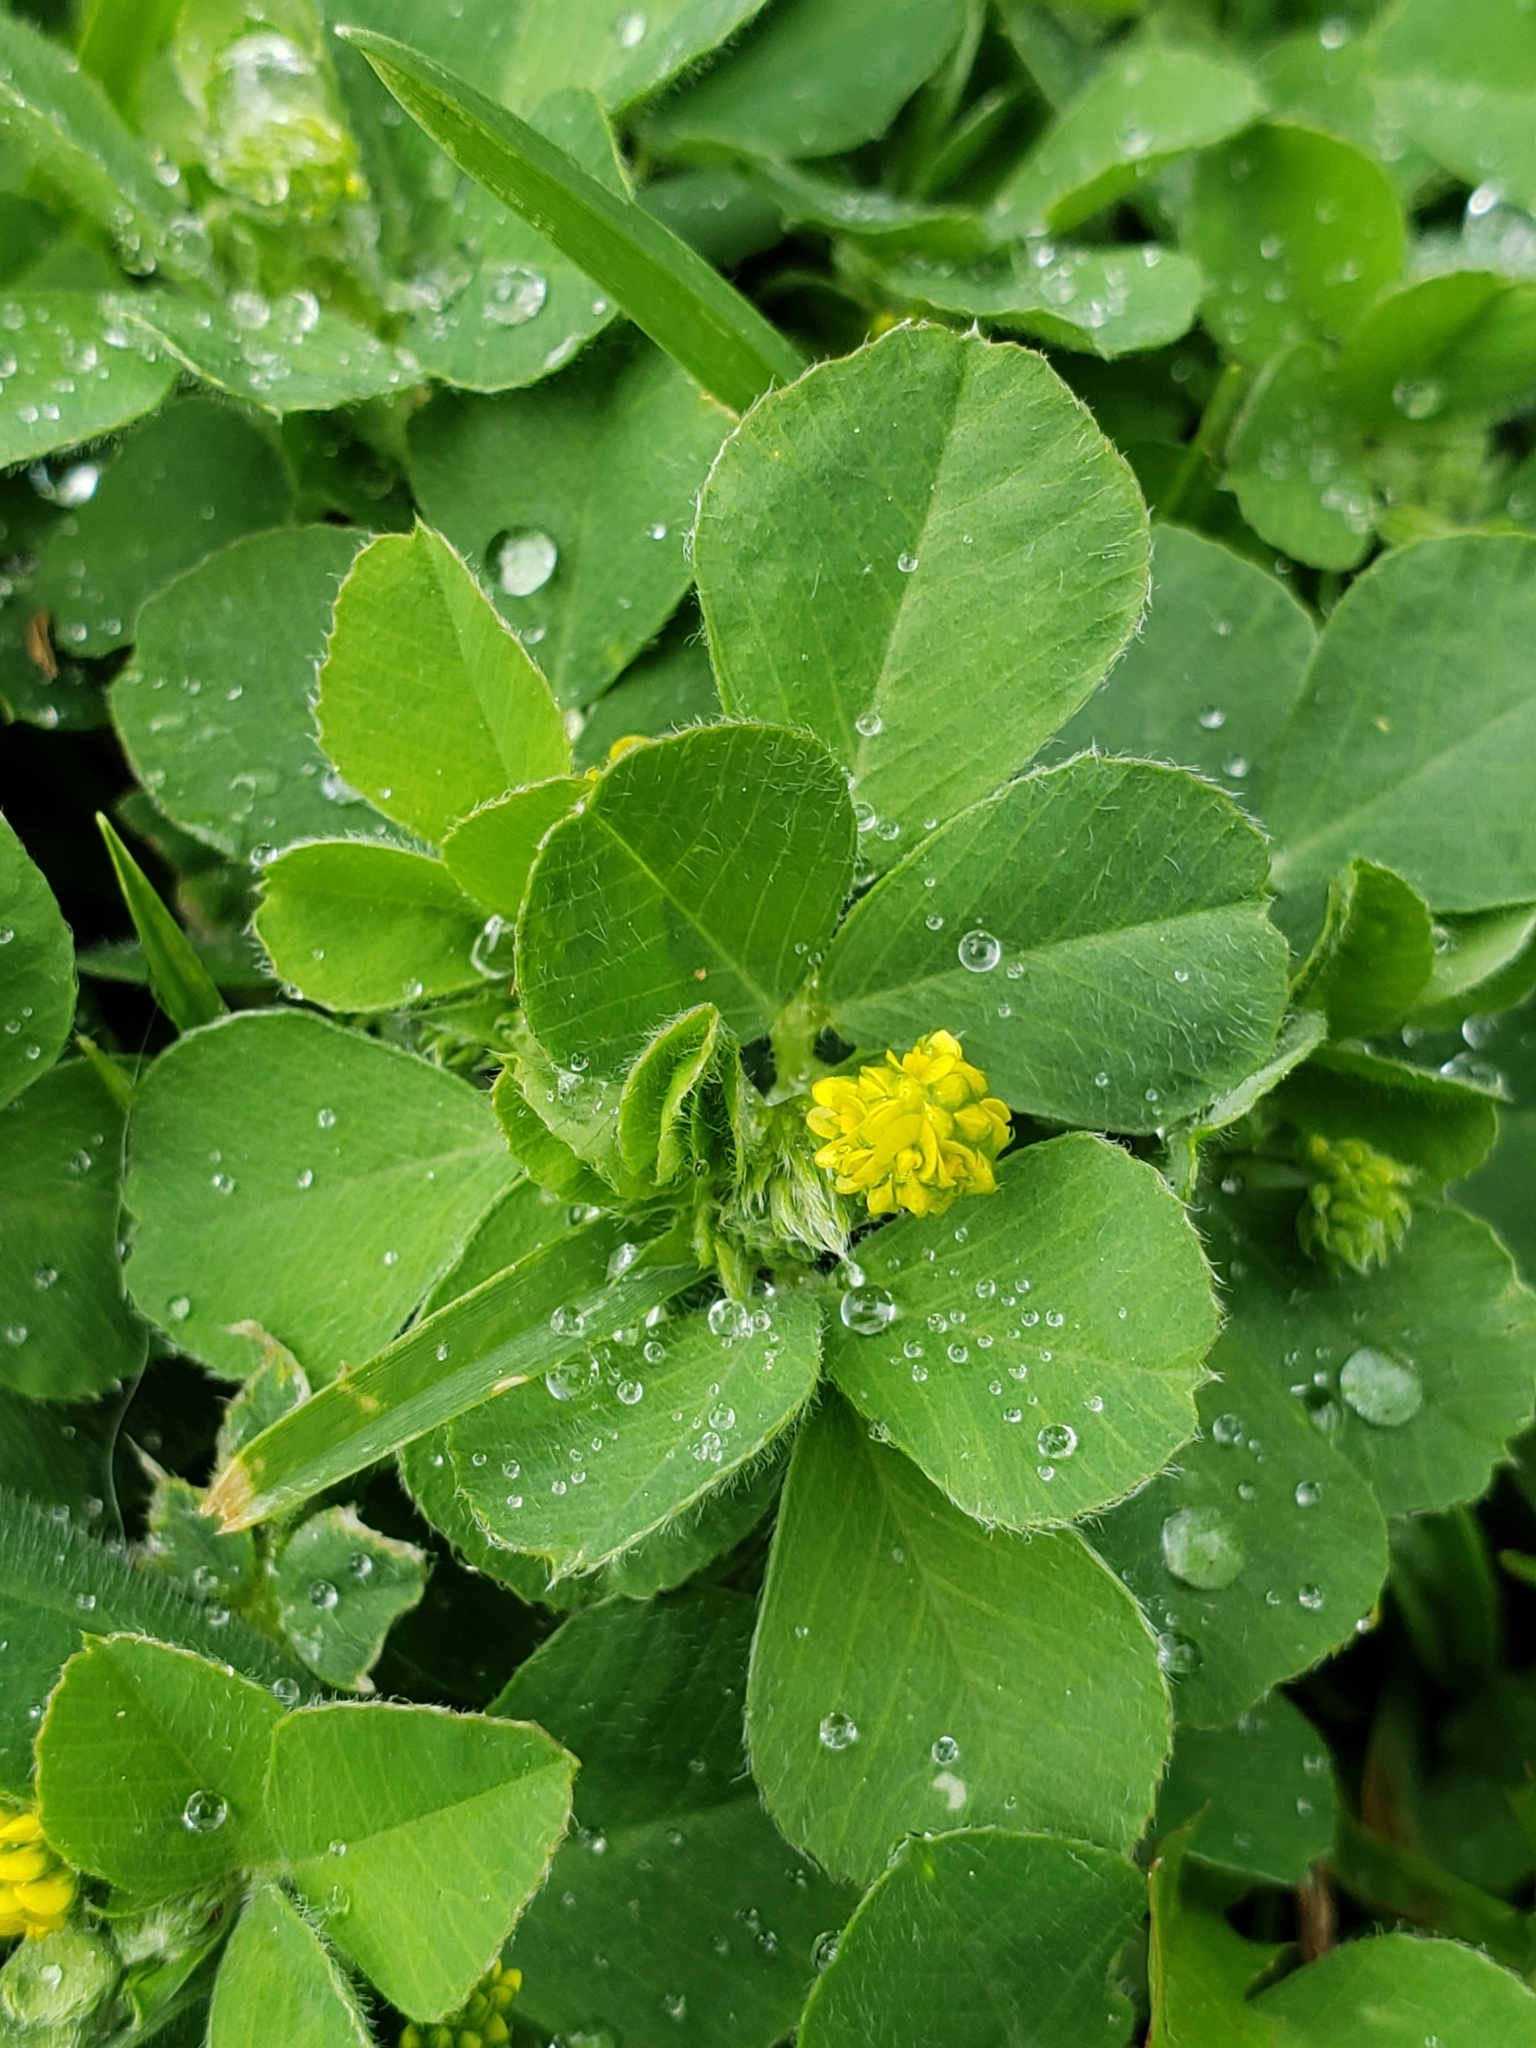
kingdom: Plantae
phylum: Tracheophyta
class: Magnoliopsida
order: Fabales
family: Fabaceae
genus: Medicago
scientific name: Medicago lupulina
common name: Black medick
